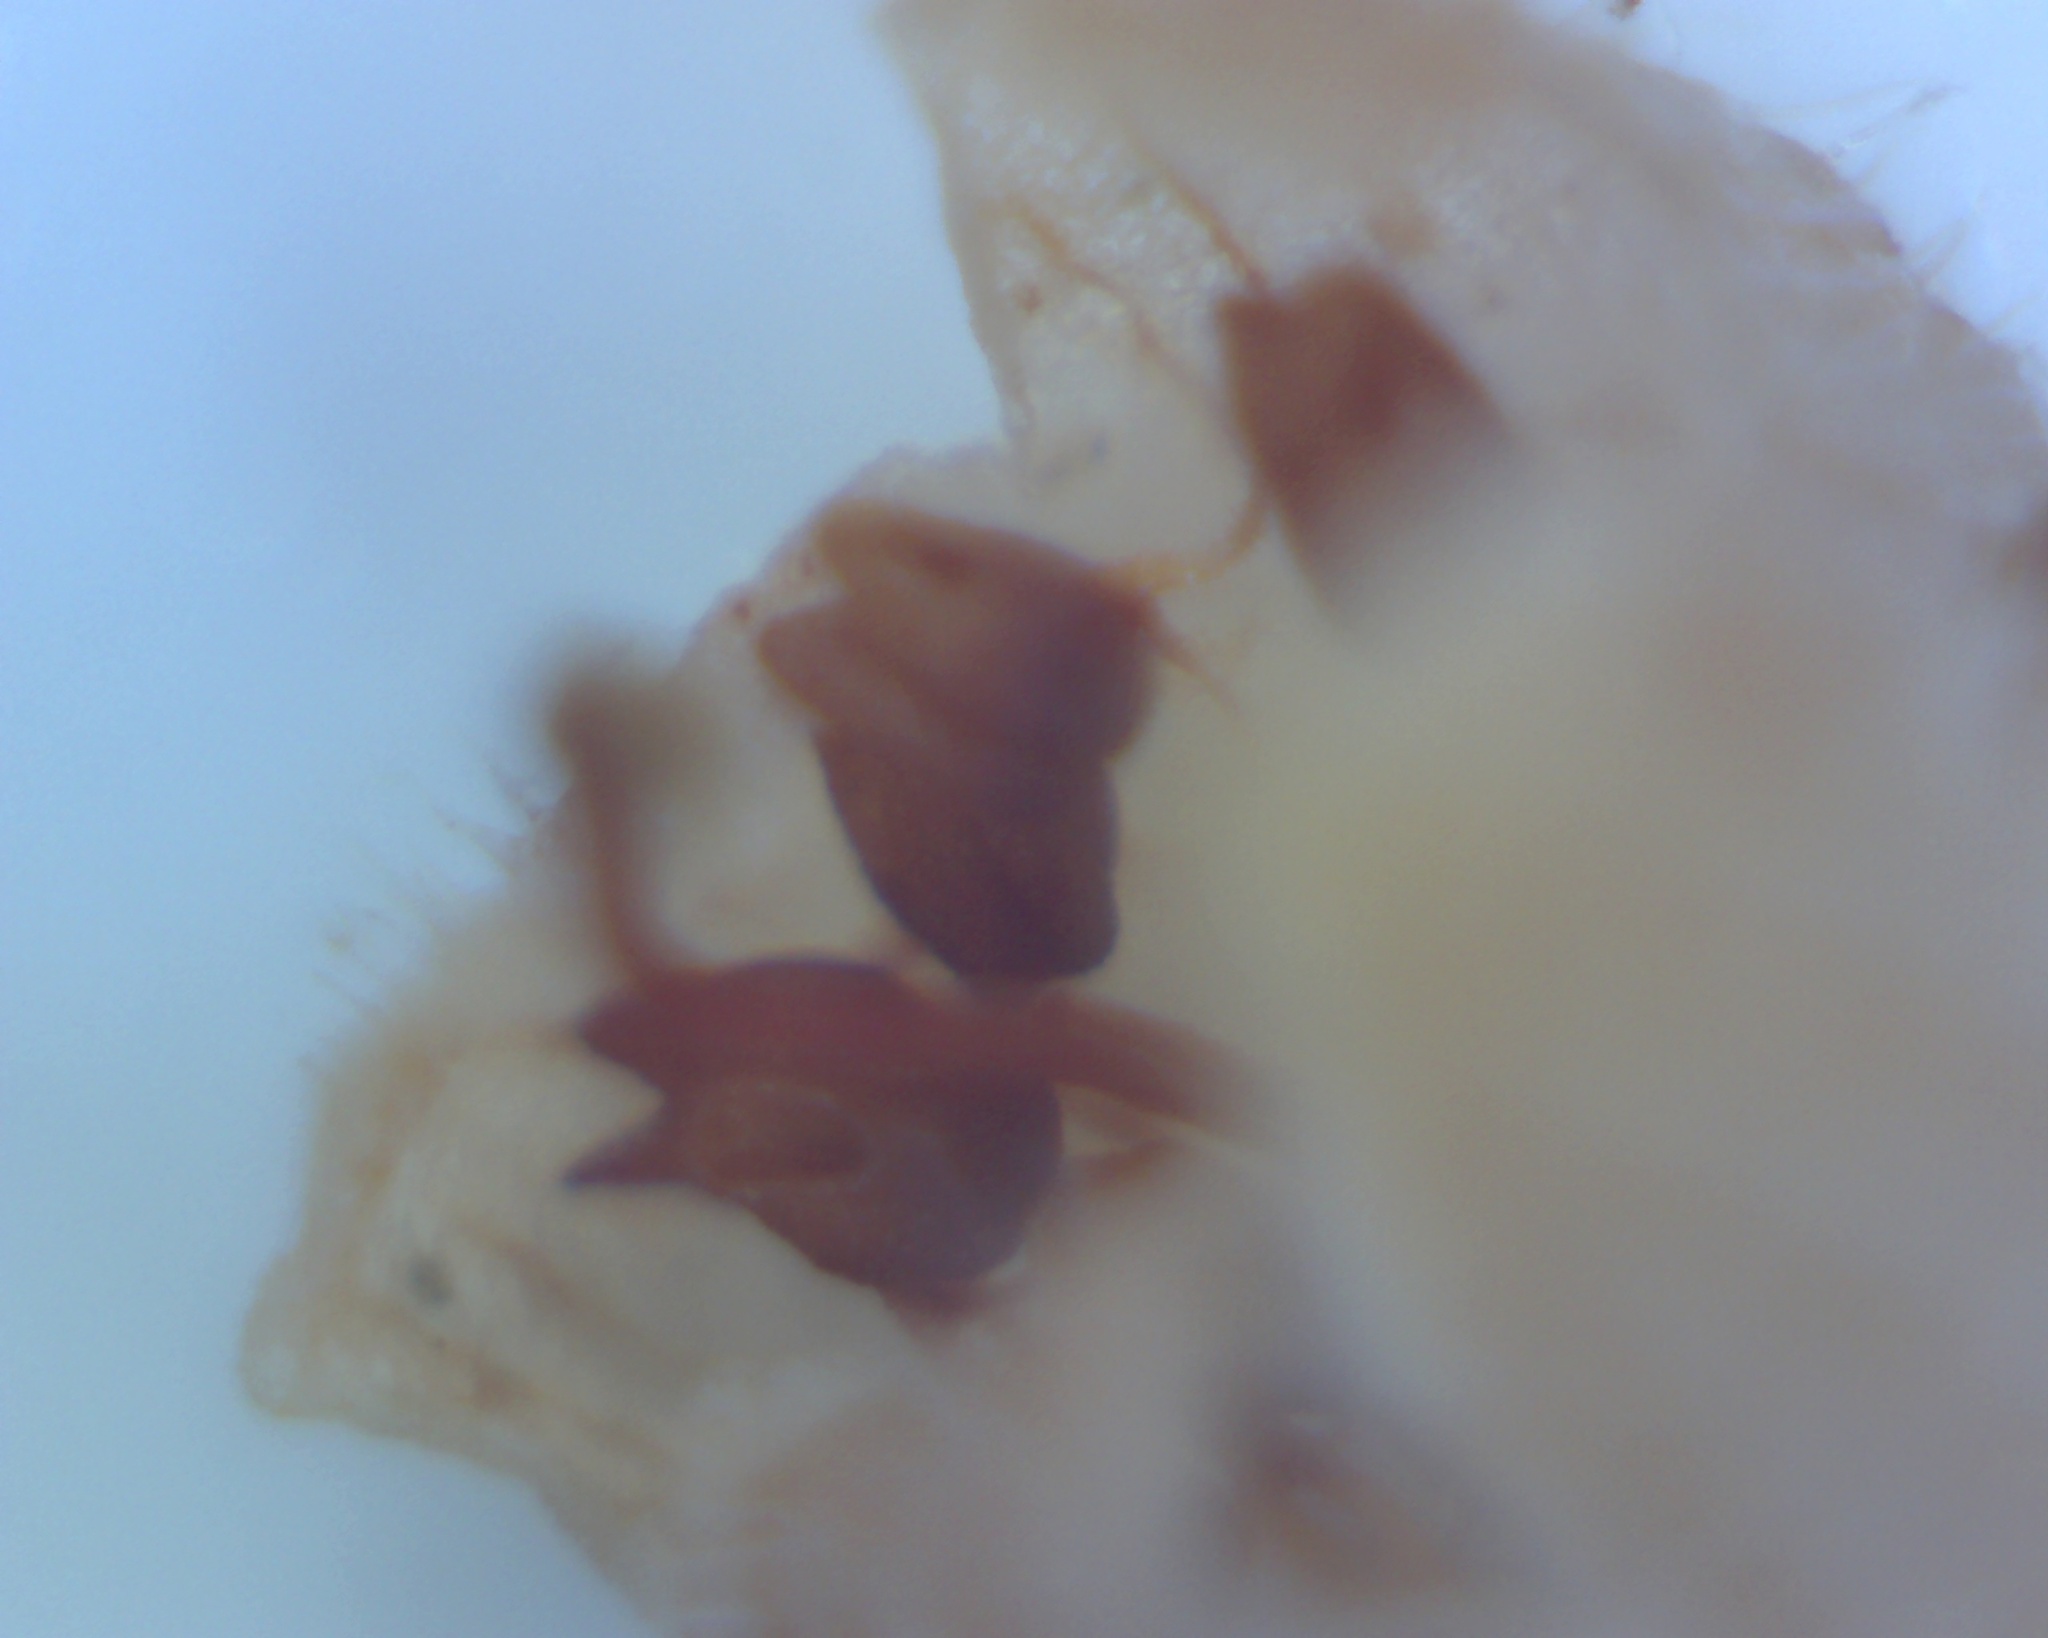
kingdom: Plantae
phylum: Tracheophyta
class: Magnoliopsida
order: Ericales
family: Ericaceae
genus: Erica
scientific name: Erica distorta
